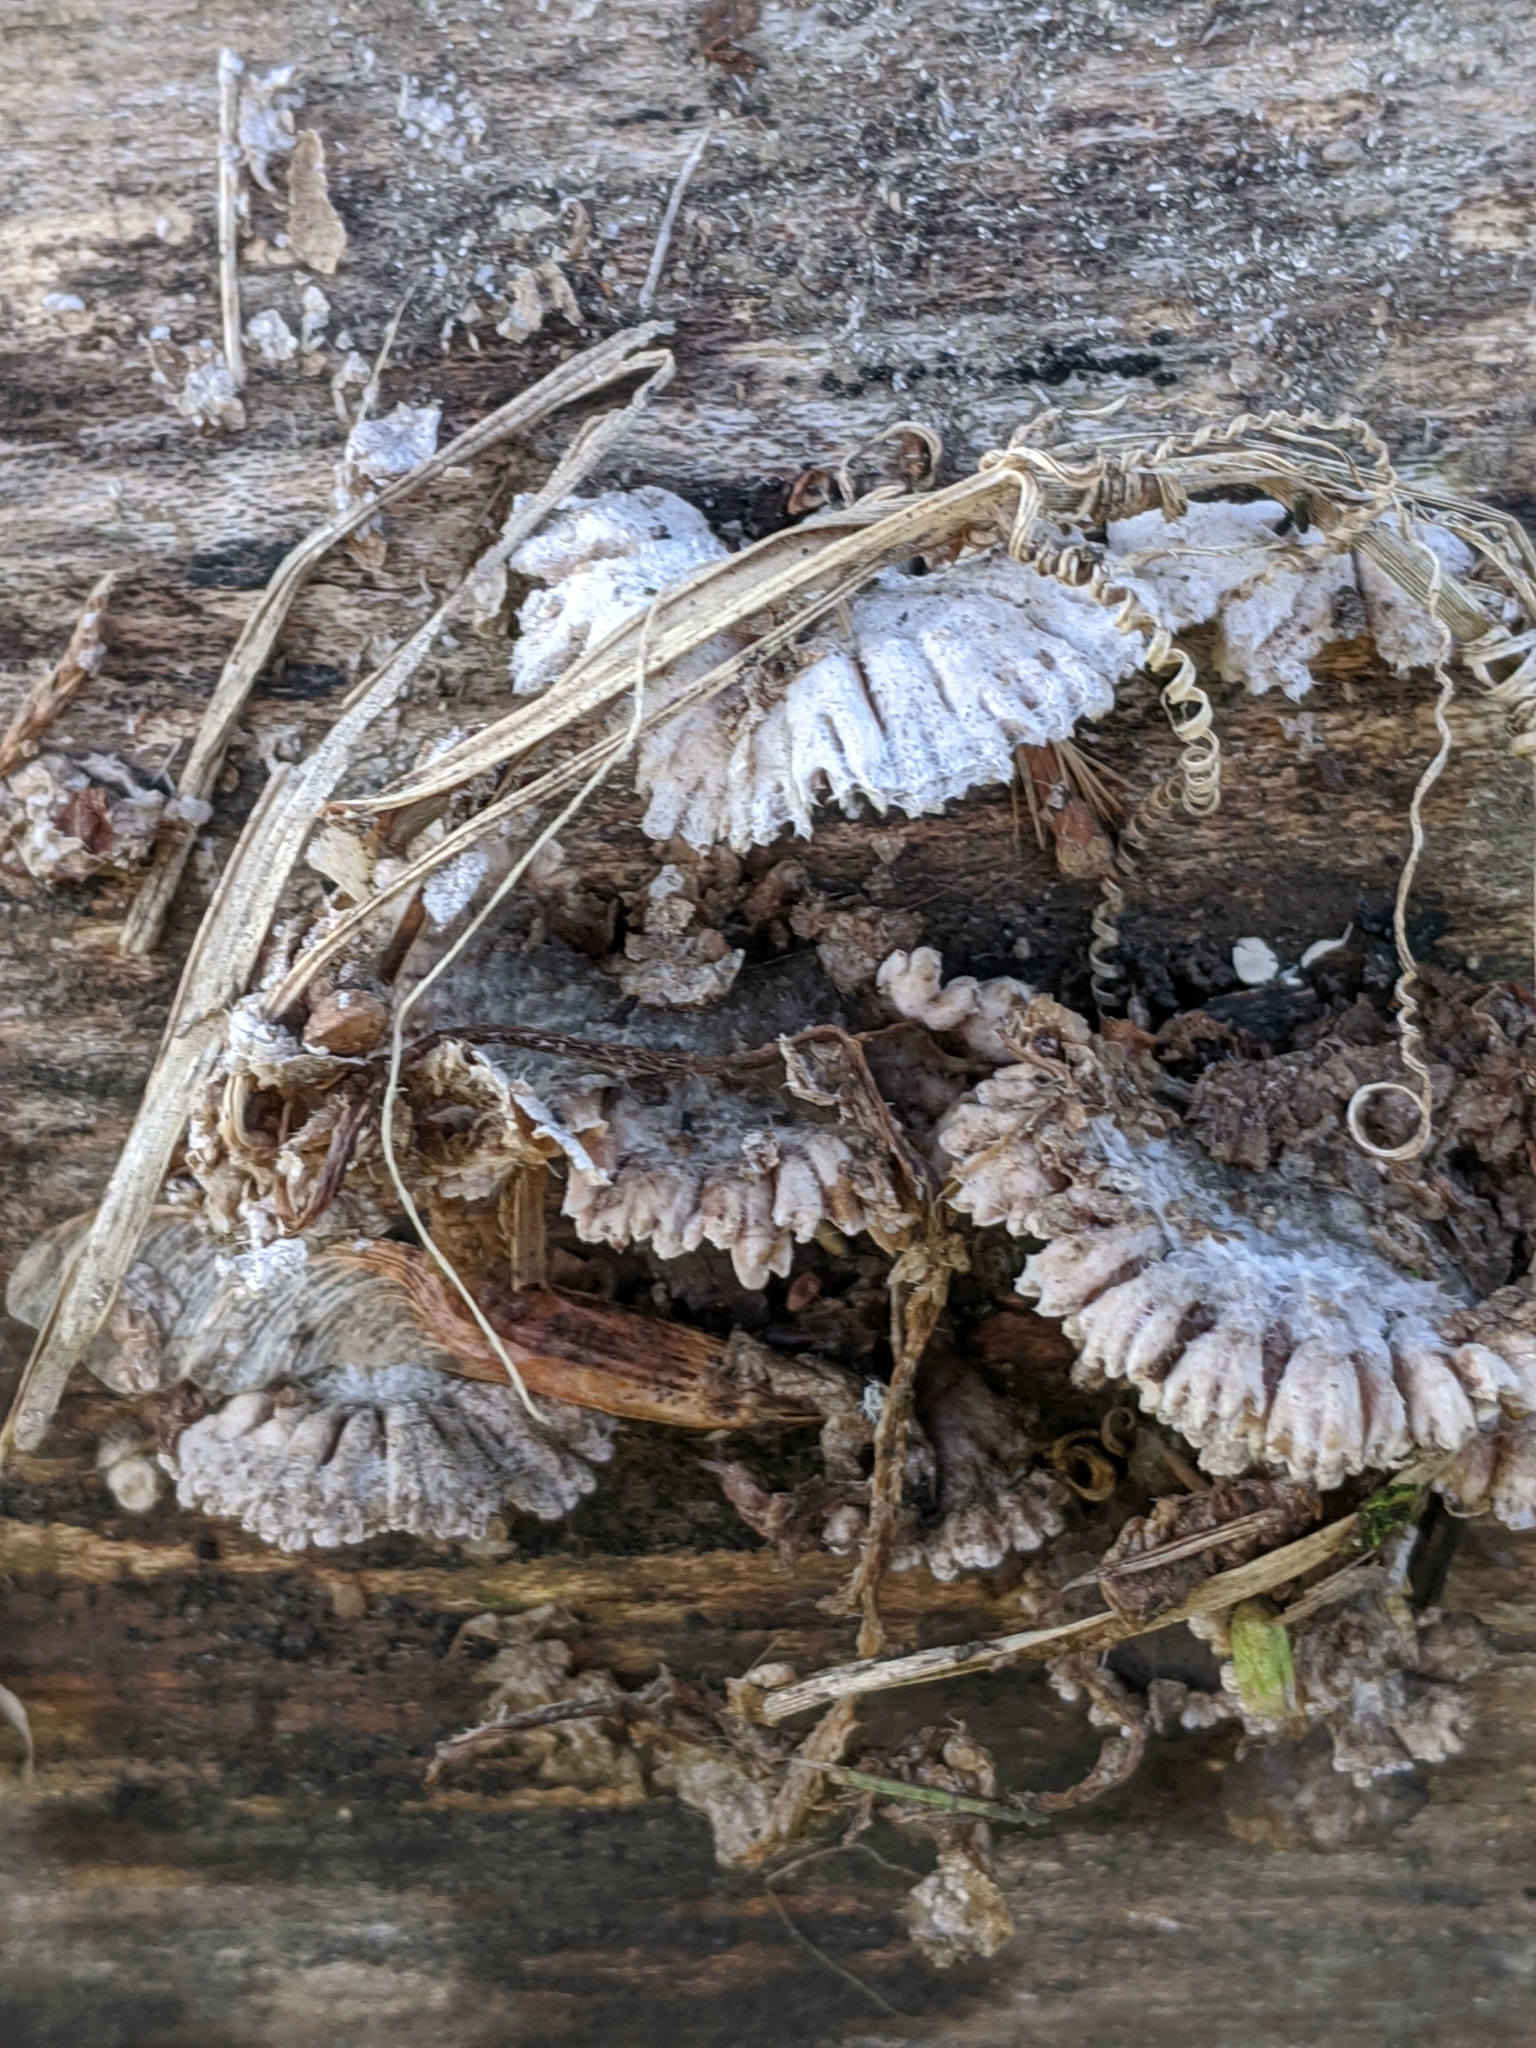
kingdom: Fungi
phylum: Basidiomycota
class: Agaricomycetes
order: Agaricales
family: Schizophyllaceae
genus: Schizophyllum
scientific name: Schizophyllum commune
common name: Common porecrust
